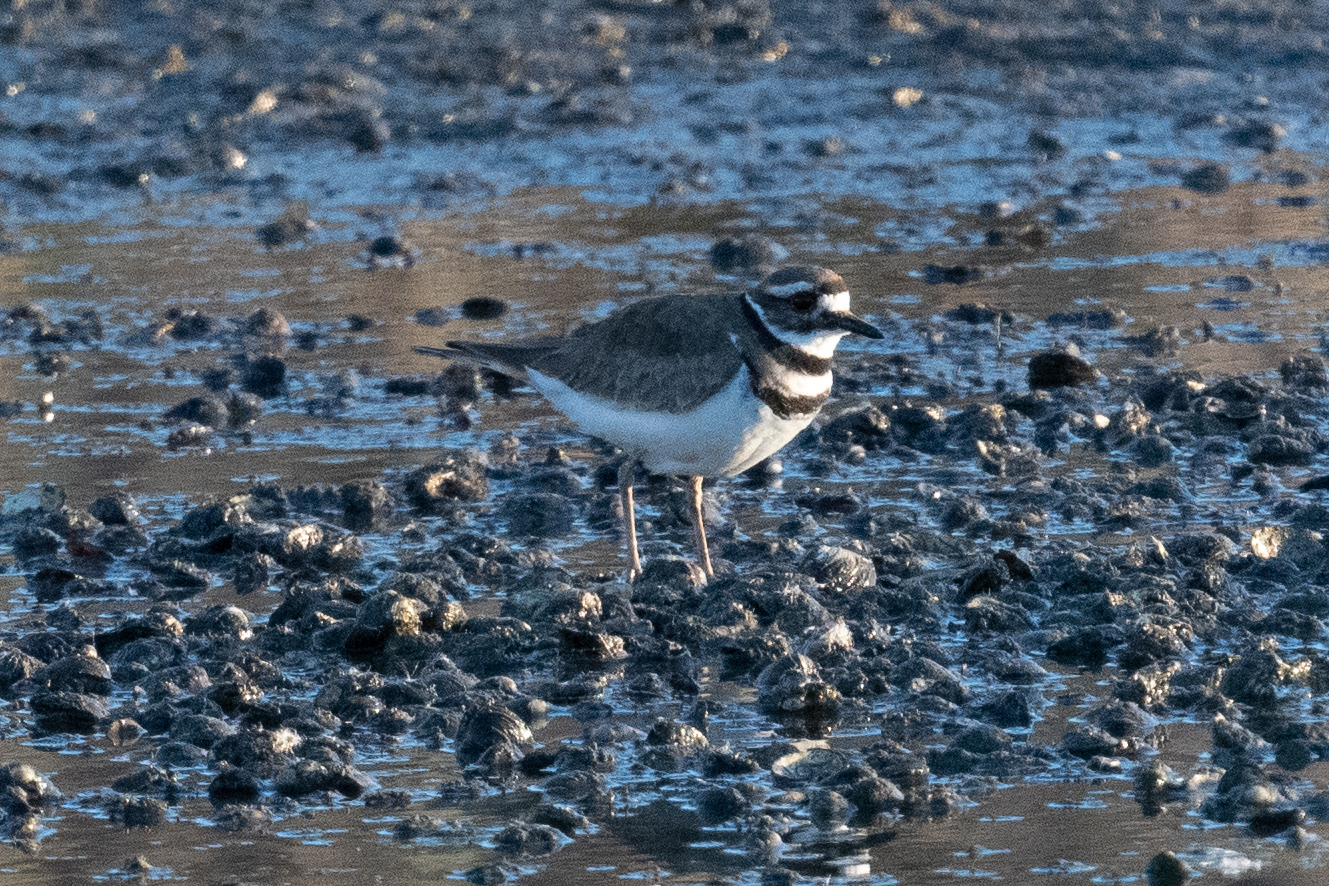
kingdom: Animalia
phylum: Chordata
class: Aves
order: Charadriiformes
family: Charadriidae
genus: Charadrius
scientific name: Charadrius vociferus
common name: Killdeer
